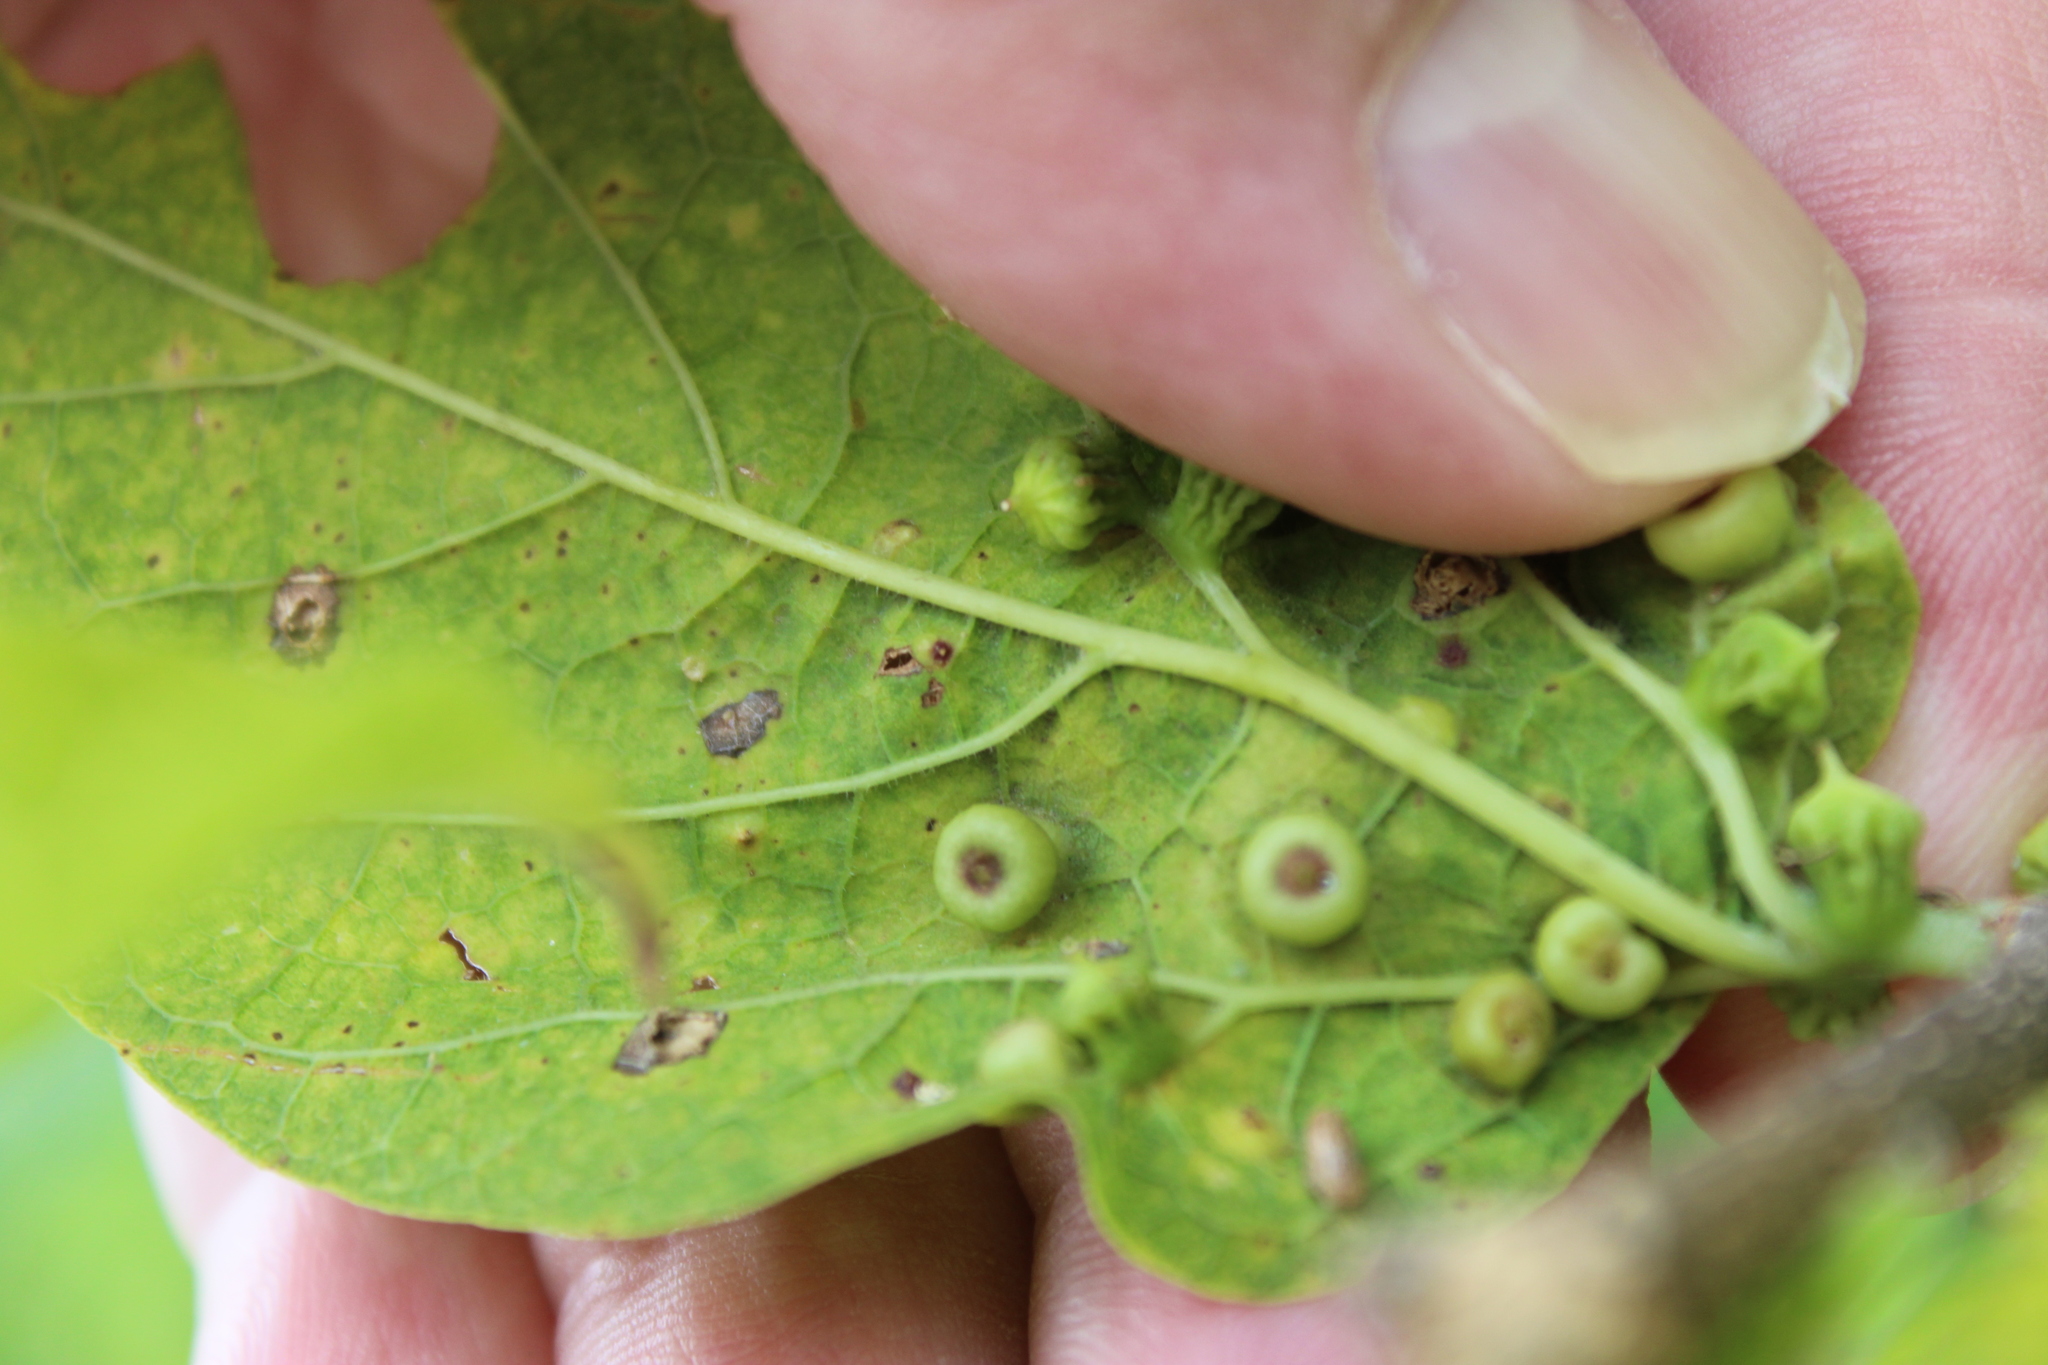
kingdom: Animalia
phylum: Arthropoda
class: Insecta
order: Hemiptera
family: Aphalaridae
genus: Pachypsylla
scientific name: Pachypsylla celtidismamma
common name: Hackberry nipplegall psyllid
